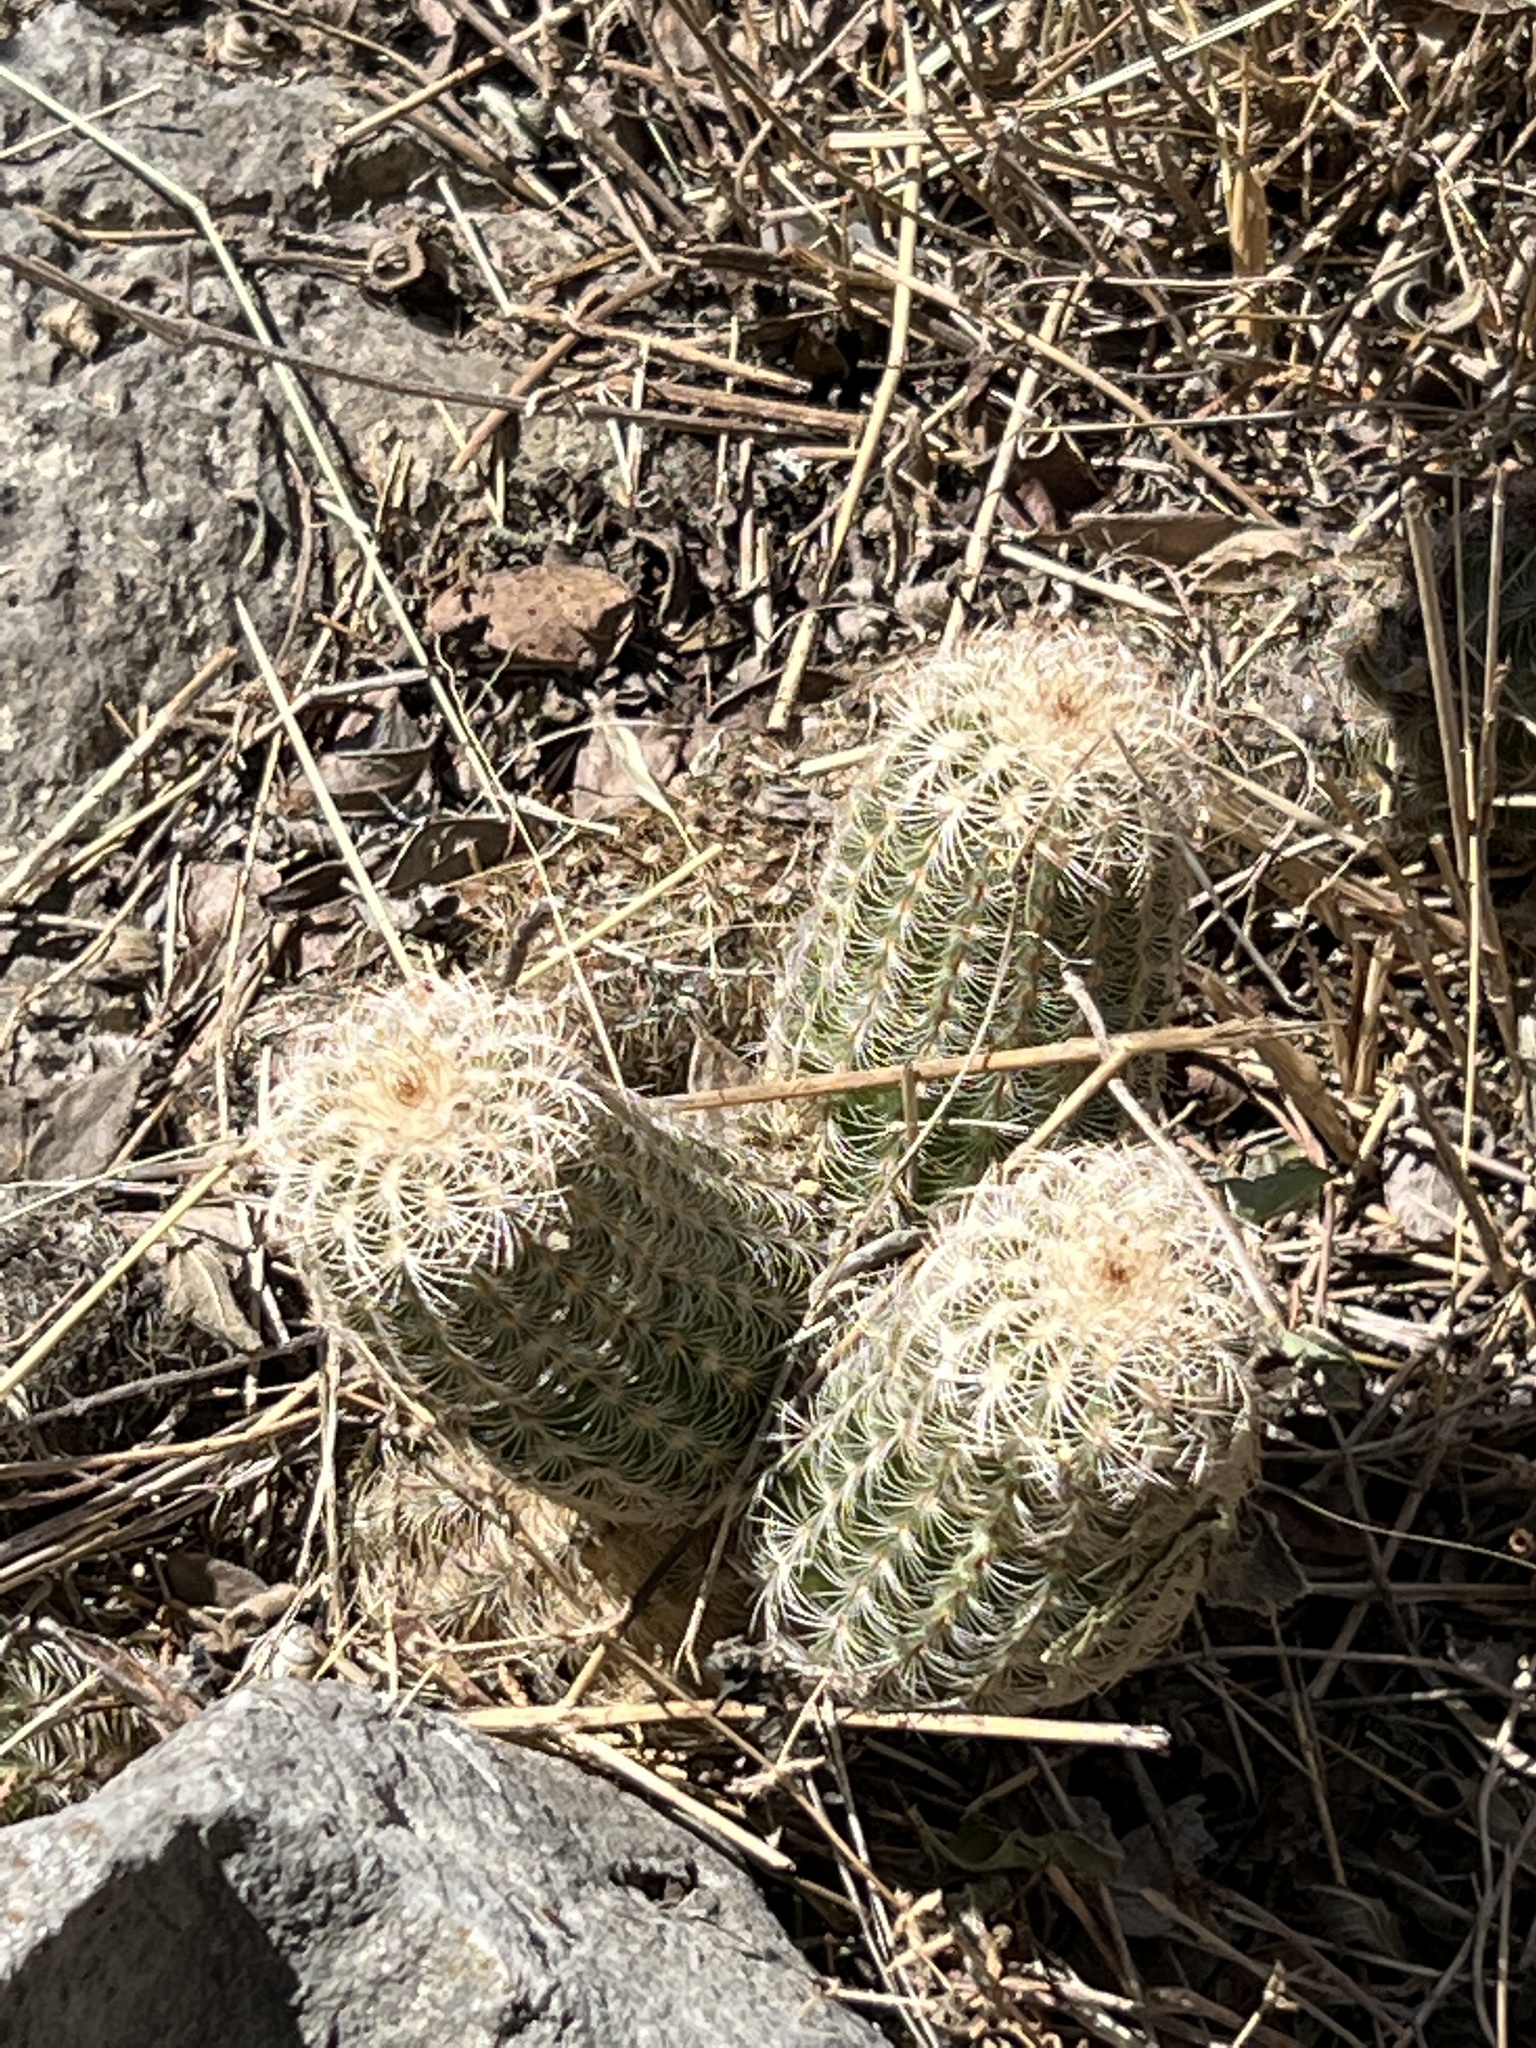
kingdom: Plantae
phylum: Tracheophyta
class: Magnoliopsida
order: Caryophyllales
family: Cactaceae
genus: Echinocereus
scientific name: Echinocereus reichenbachii
